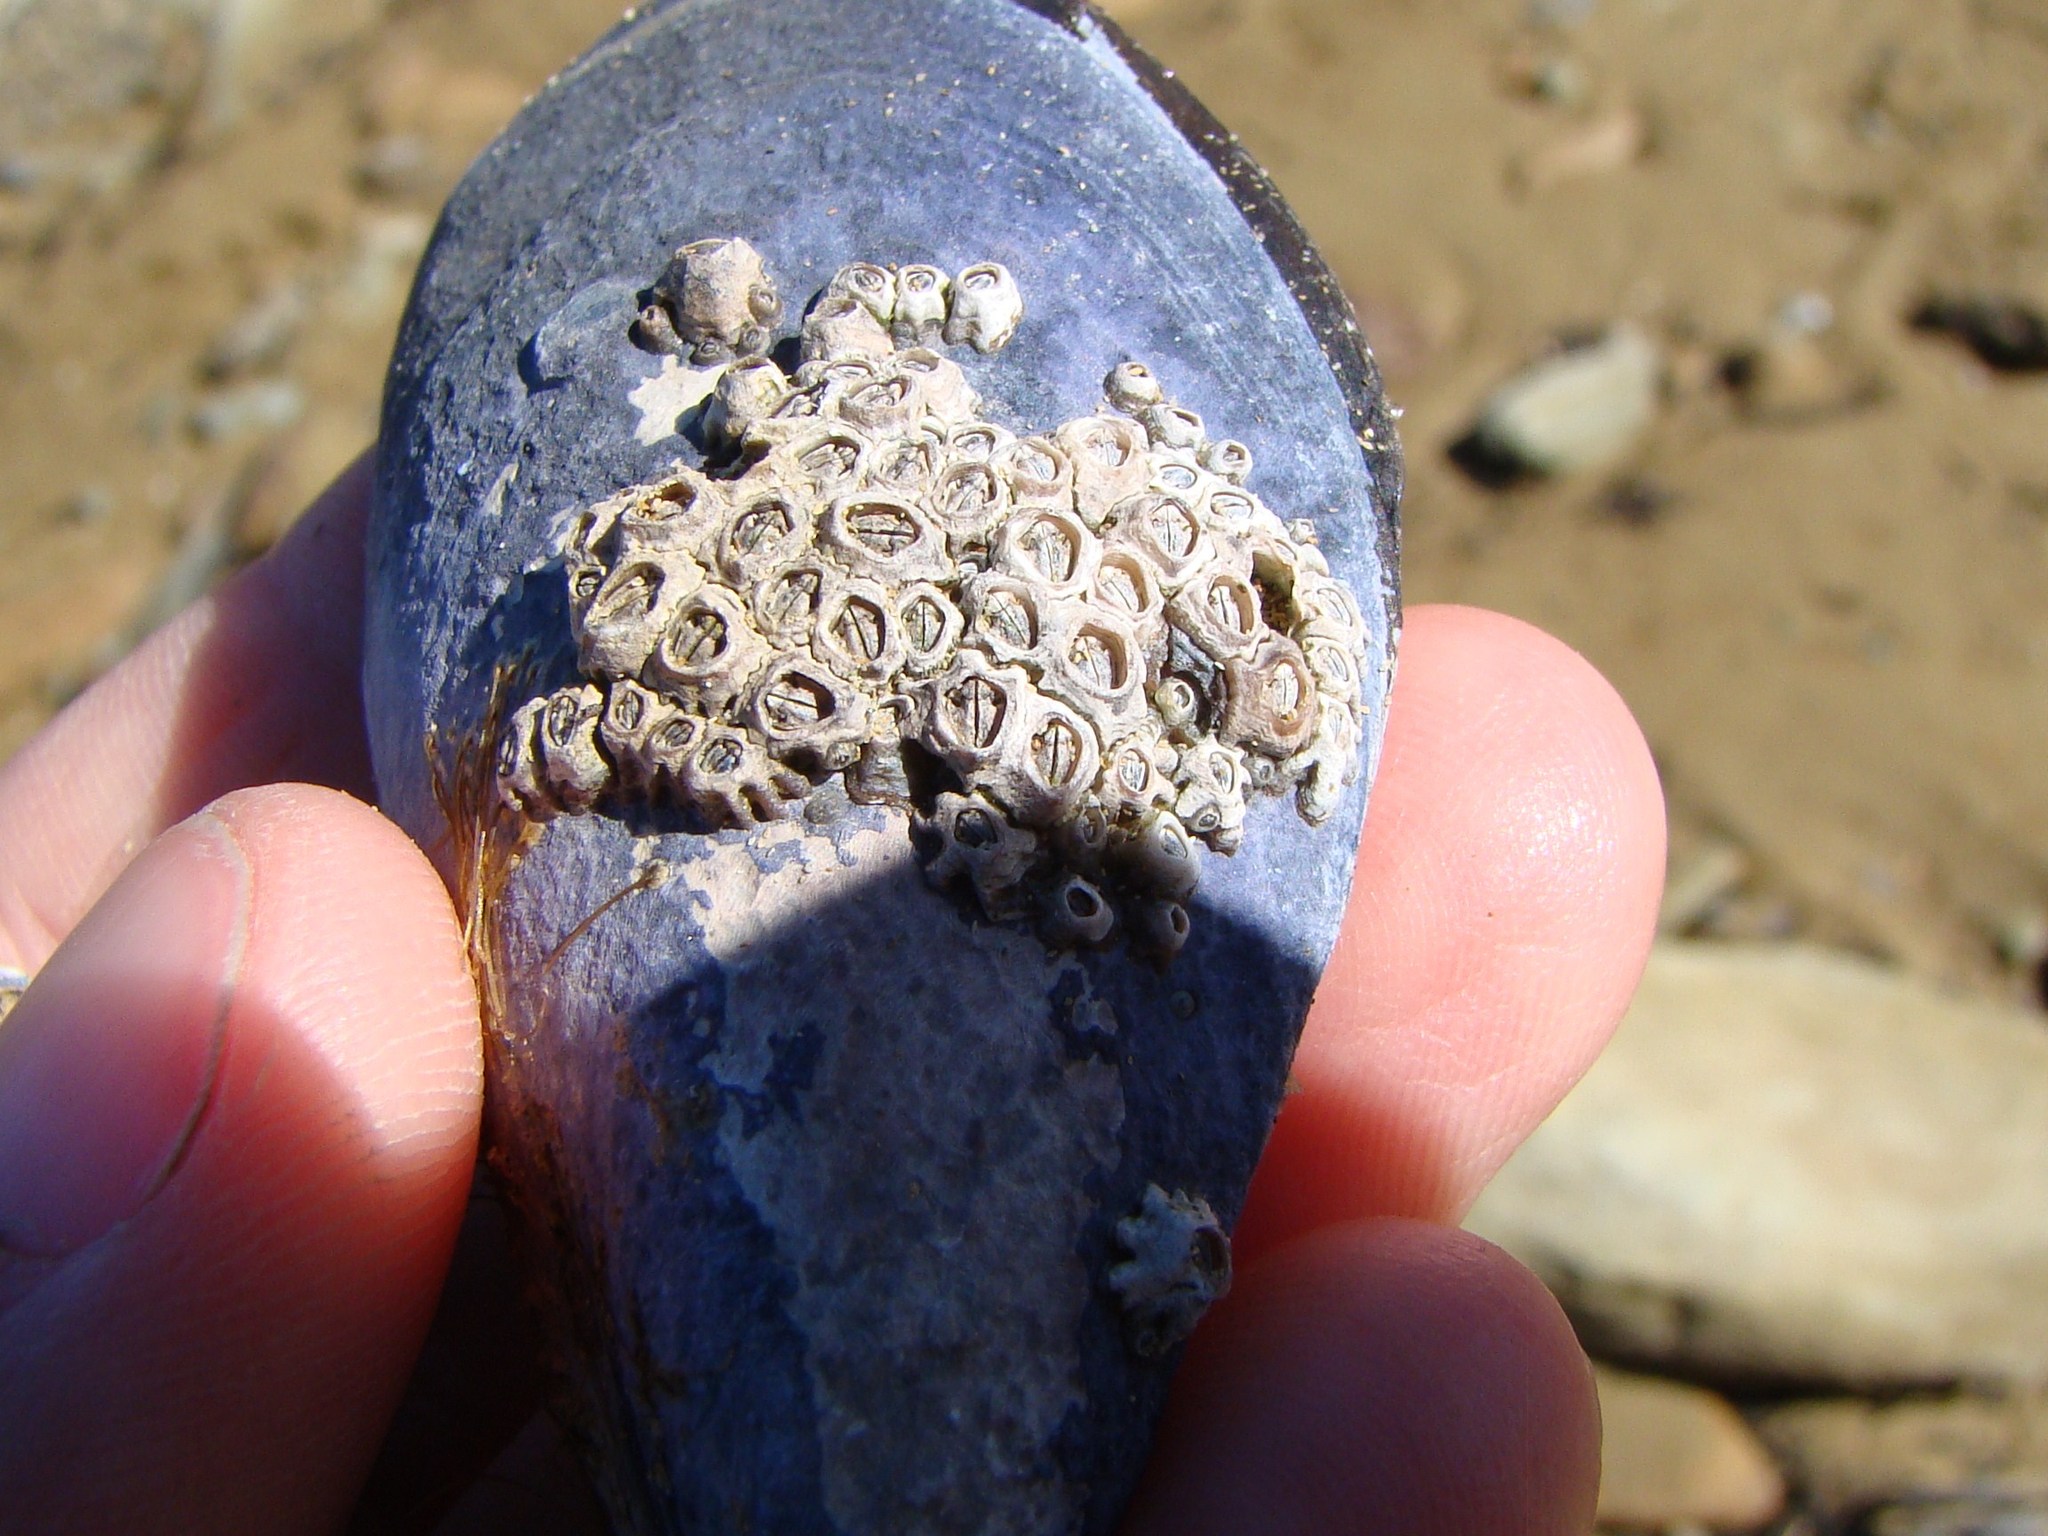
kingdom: Animalia
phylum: Arthropoda
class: Maxillopoda
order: Sessilia
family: Chthamalidae
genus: Chamaesipho
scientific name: Chamaesipho columna
